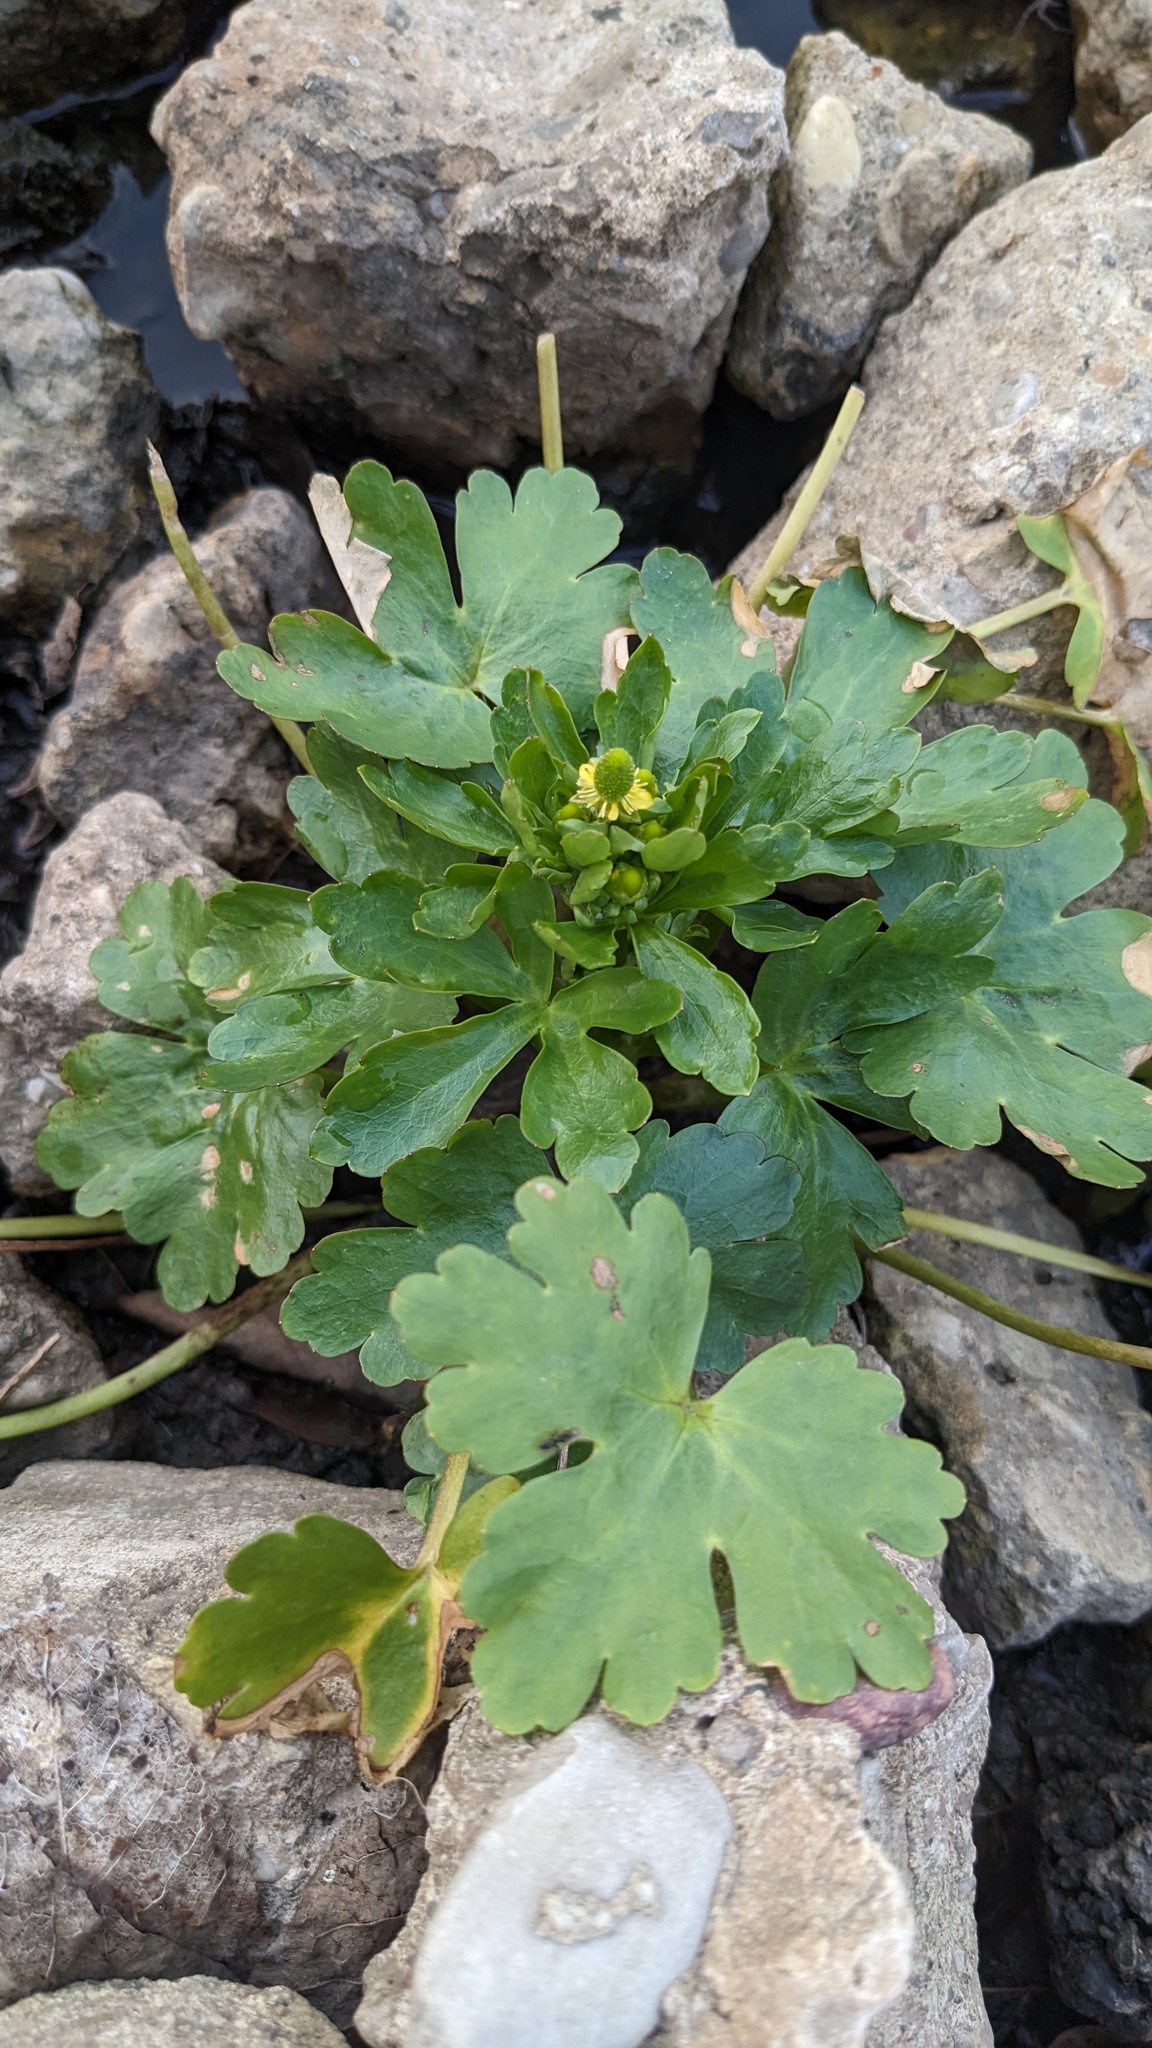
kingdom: Plantae
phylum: Tracheophyta
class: Magnoliopsida
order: Ranunculales
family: Ranunculaceae
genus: Ranunculus
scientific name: Ranunculus sceleratus
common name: Celery-leaved buttercup
